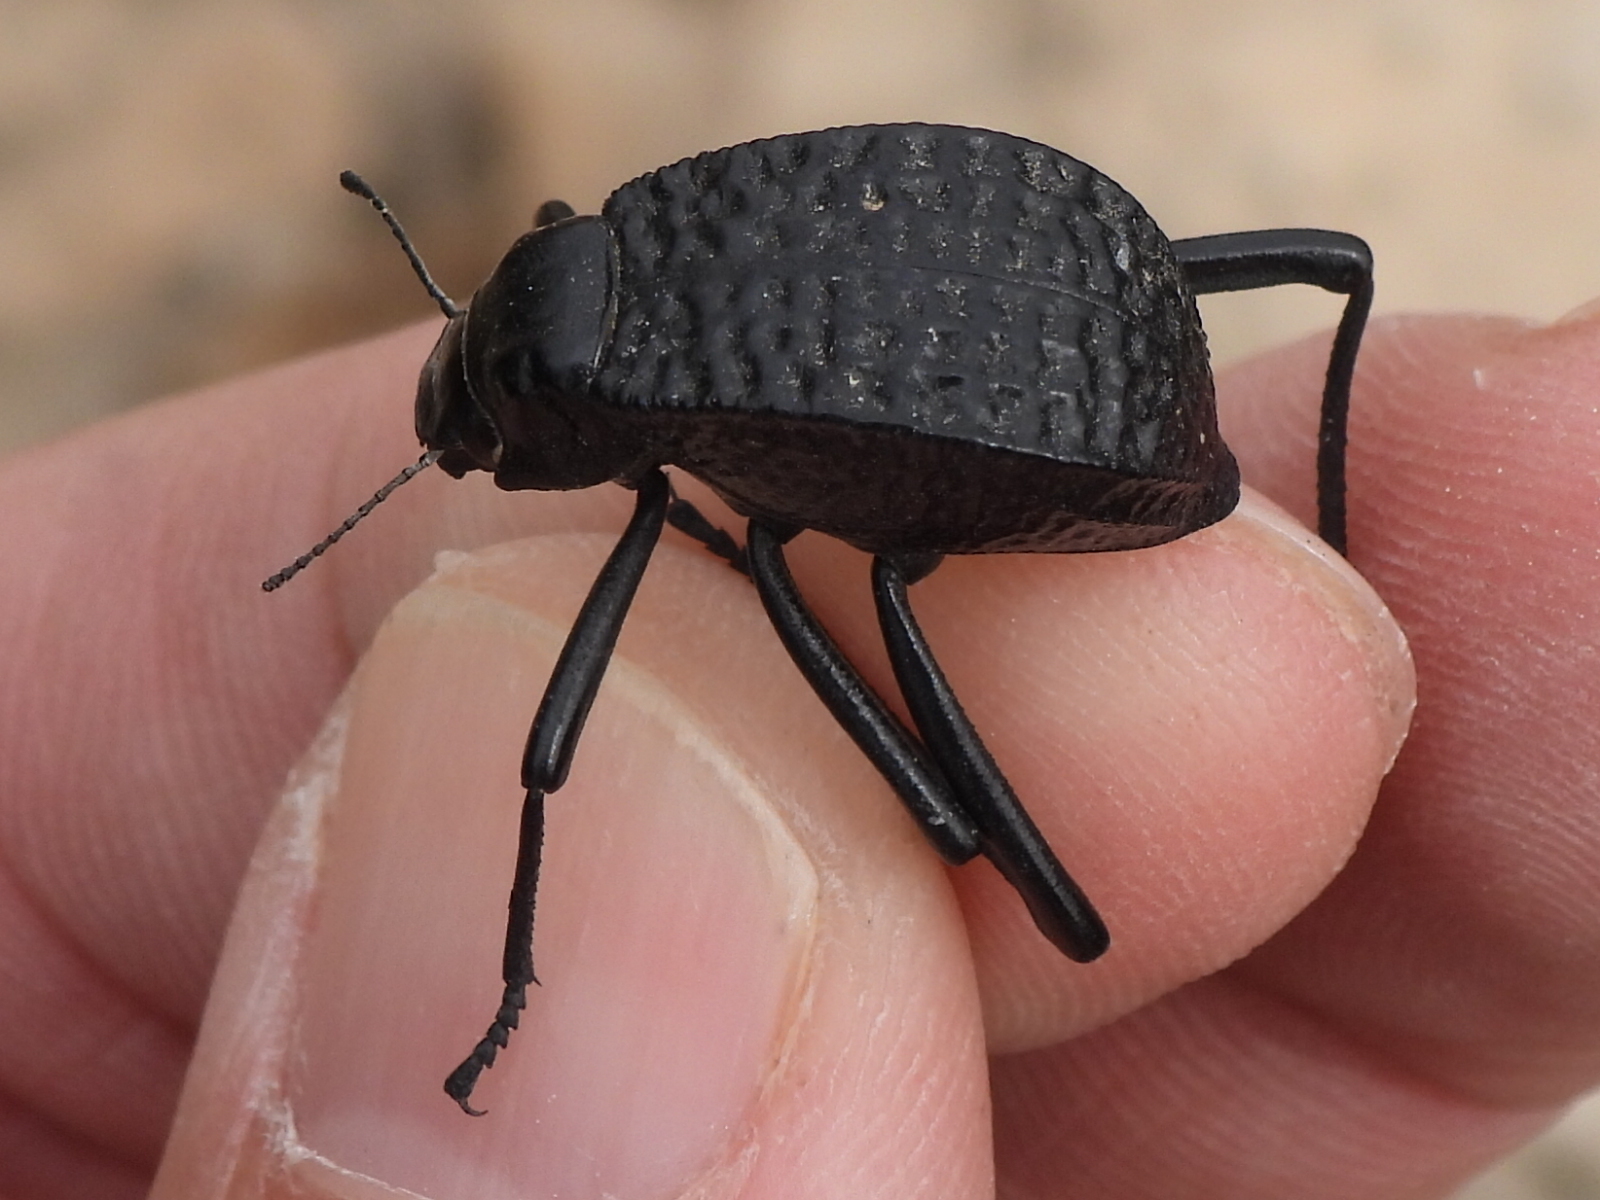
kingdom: Animalia
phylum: Arthropoda
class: Insecta
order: Coleoptera
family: Tenebrionidae
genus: Adesmia
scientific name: Adesmia cancellata
